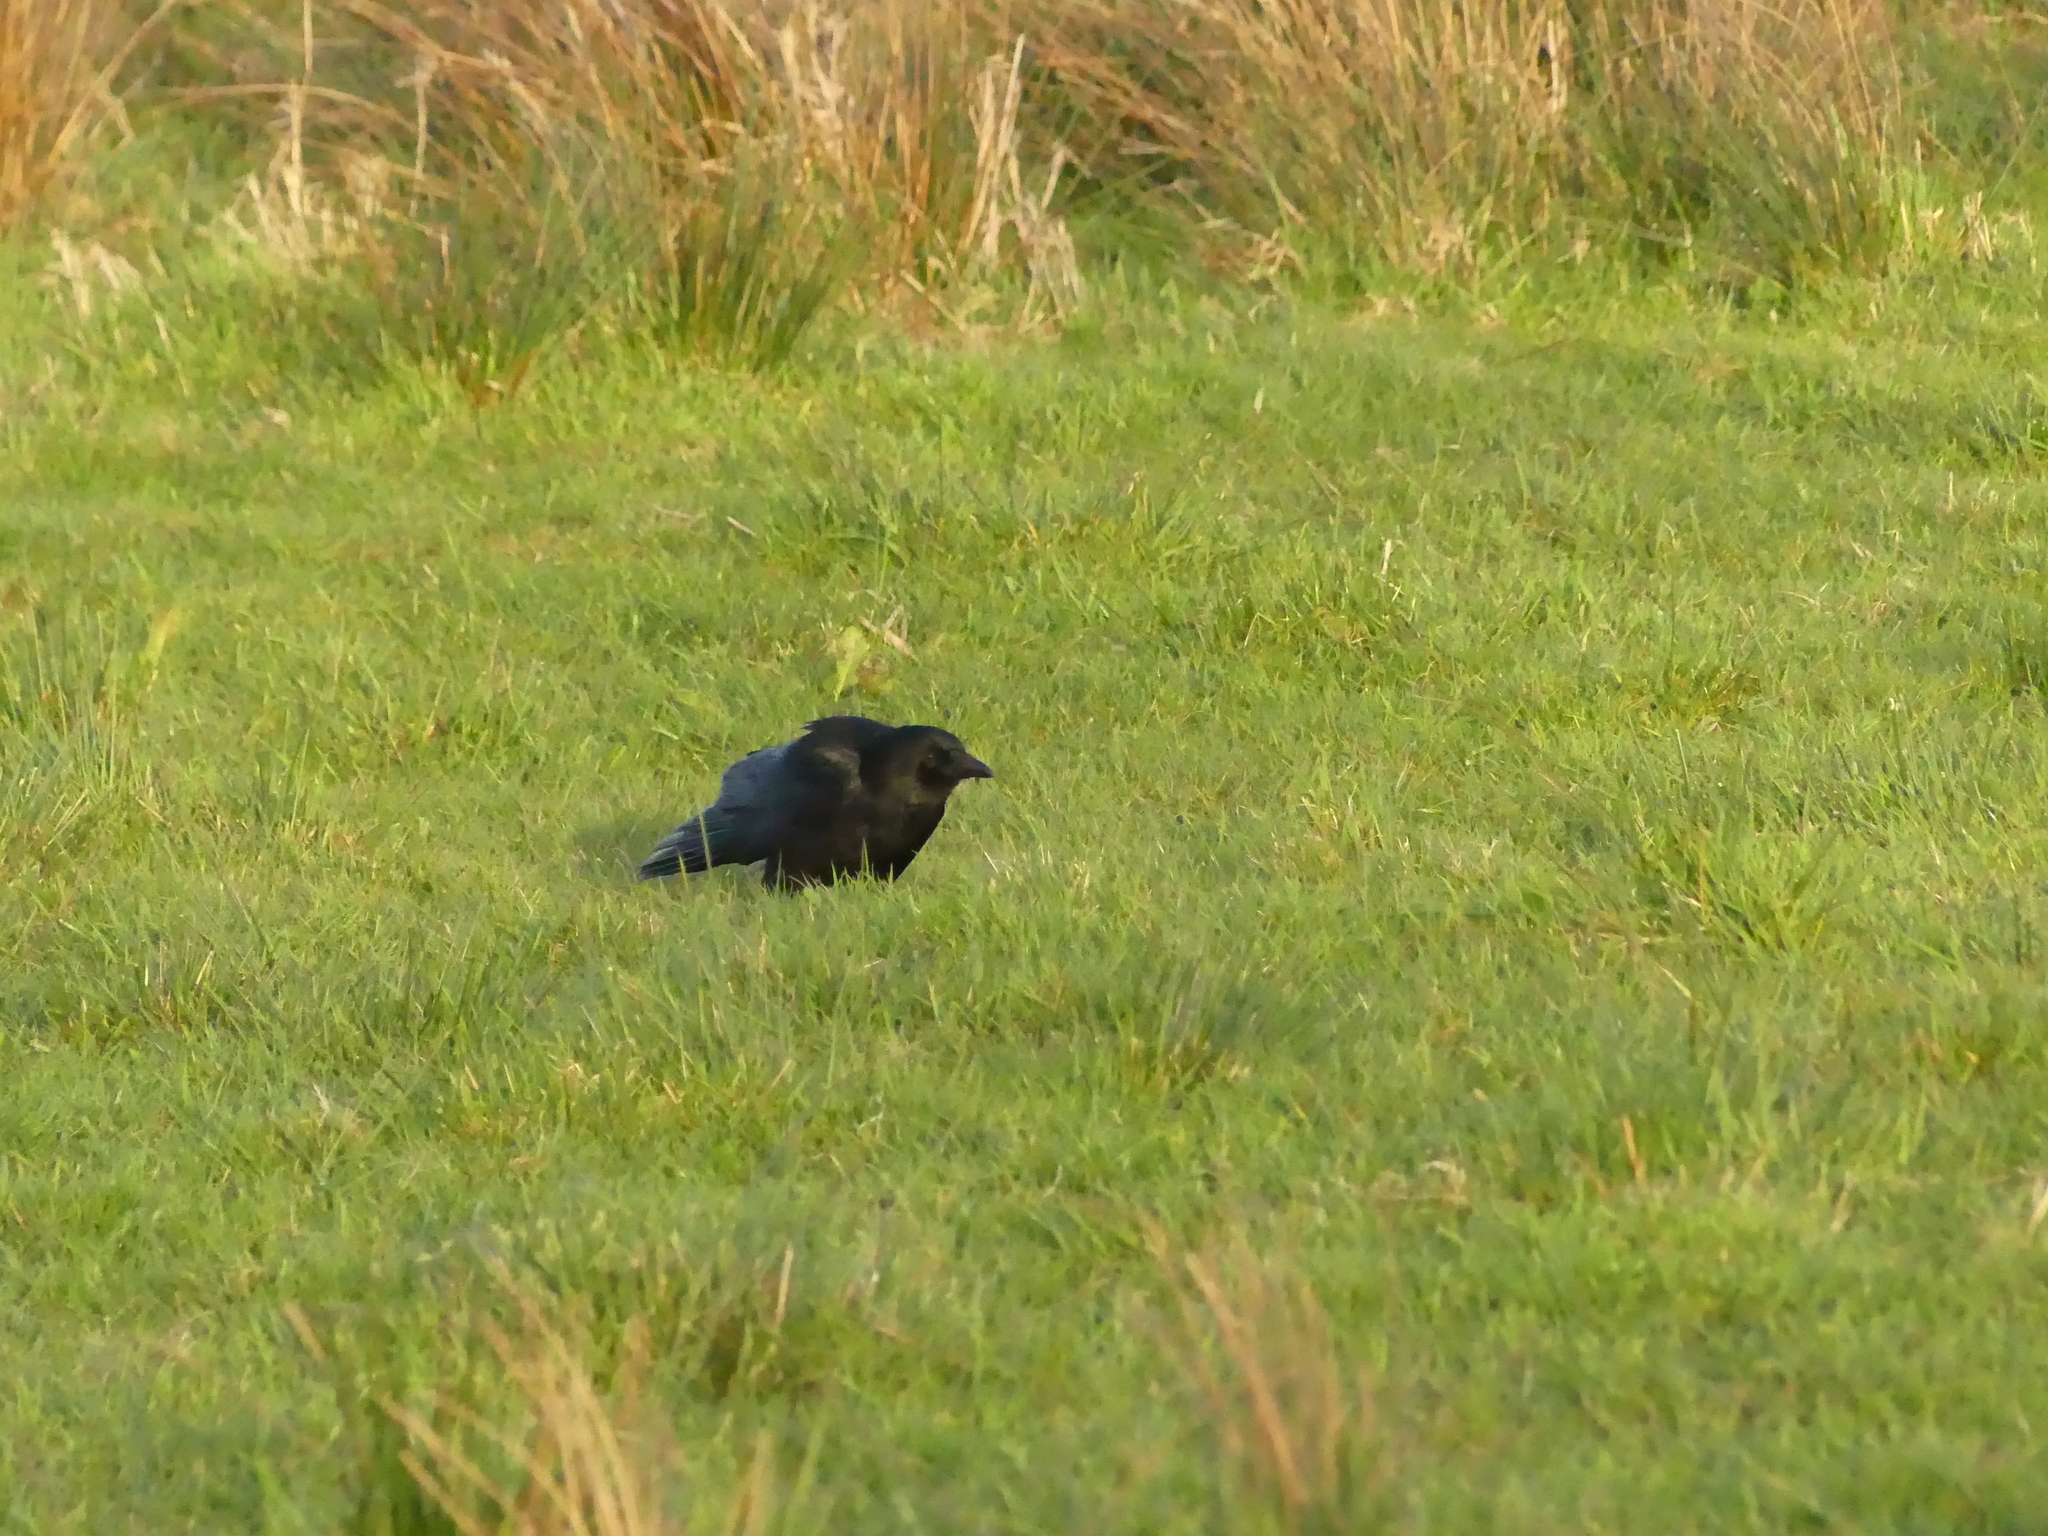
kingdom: Animalia
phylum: Chordata
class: Aves
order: Passeriformes
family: Corvidae
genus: Corvus
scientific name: Corvus corone
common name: Carrion crow
